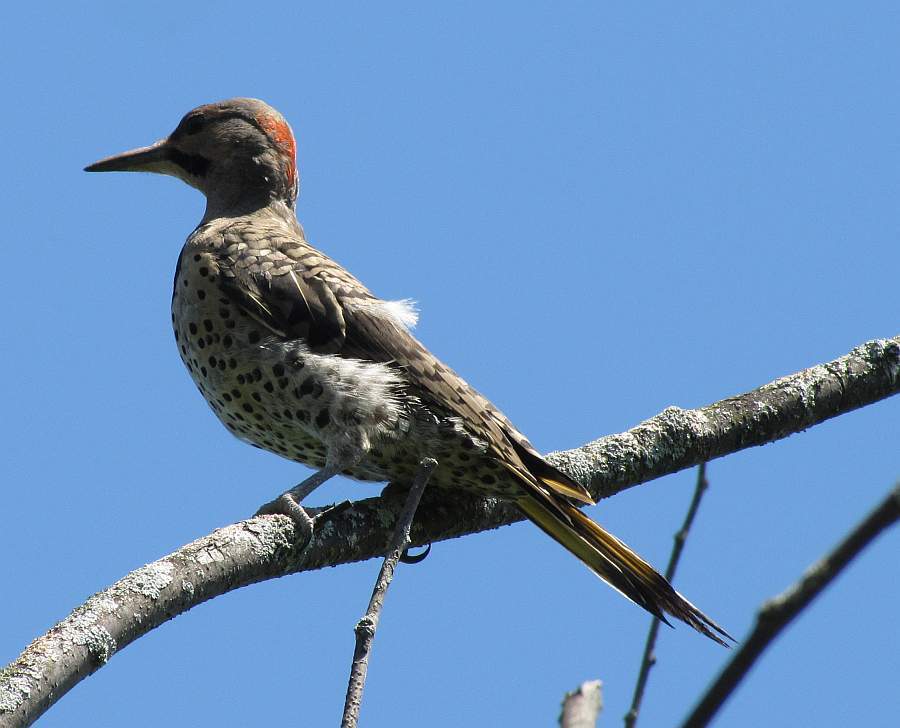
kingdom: Animalia
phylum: Chordata
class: Aves
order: Piciformes
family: Picidae
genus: Colaptes
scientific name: Colaptes auratus
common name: Northern flicker
